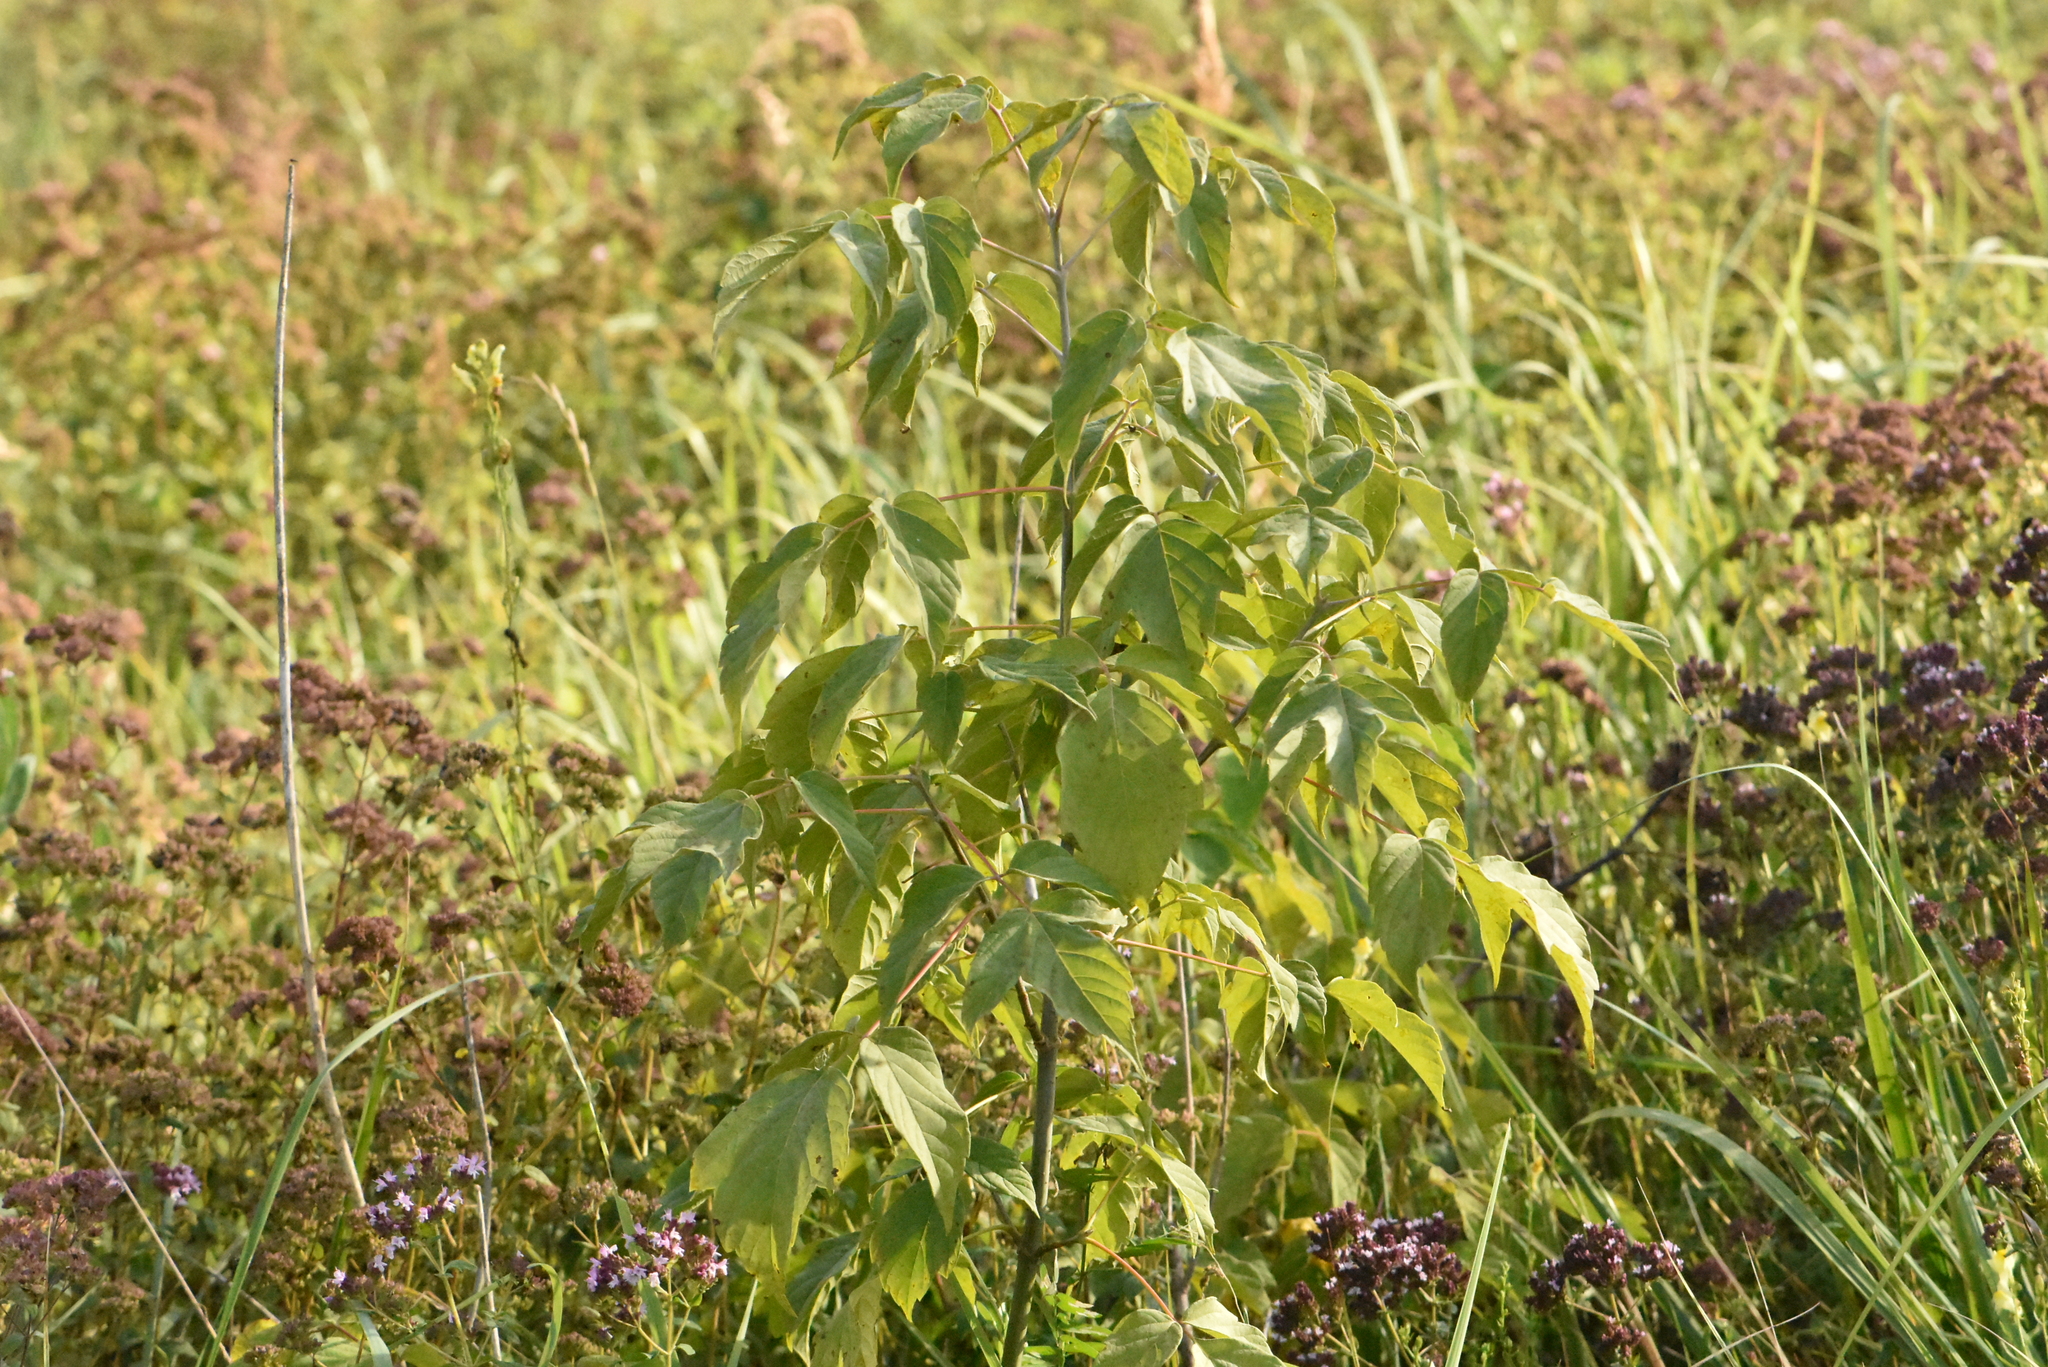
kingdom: Plantae
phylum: Tracheophyta
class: Magnoliopsida
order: Sapindales
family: Sapindaceae
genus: Acer
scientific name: Acer negundo
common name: Ashleaf maple
